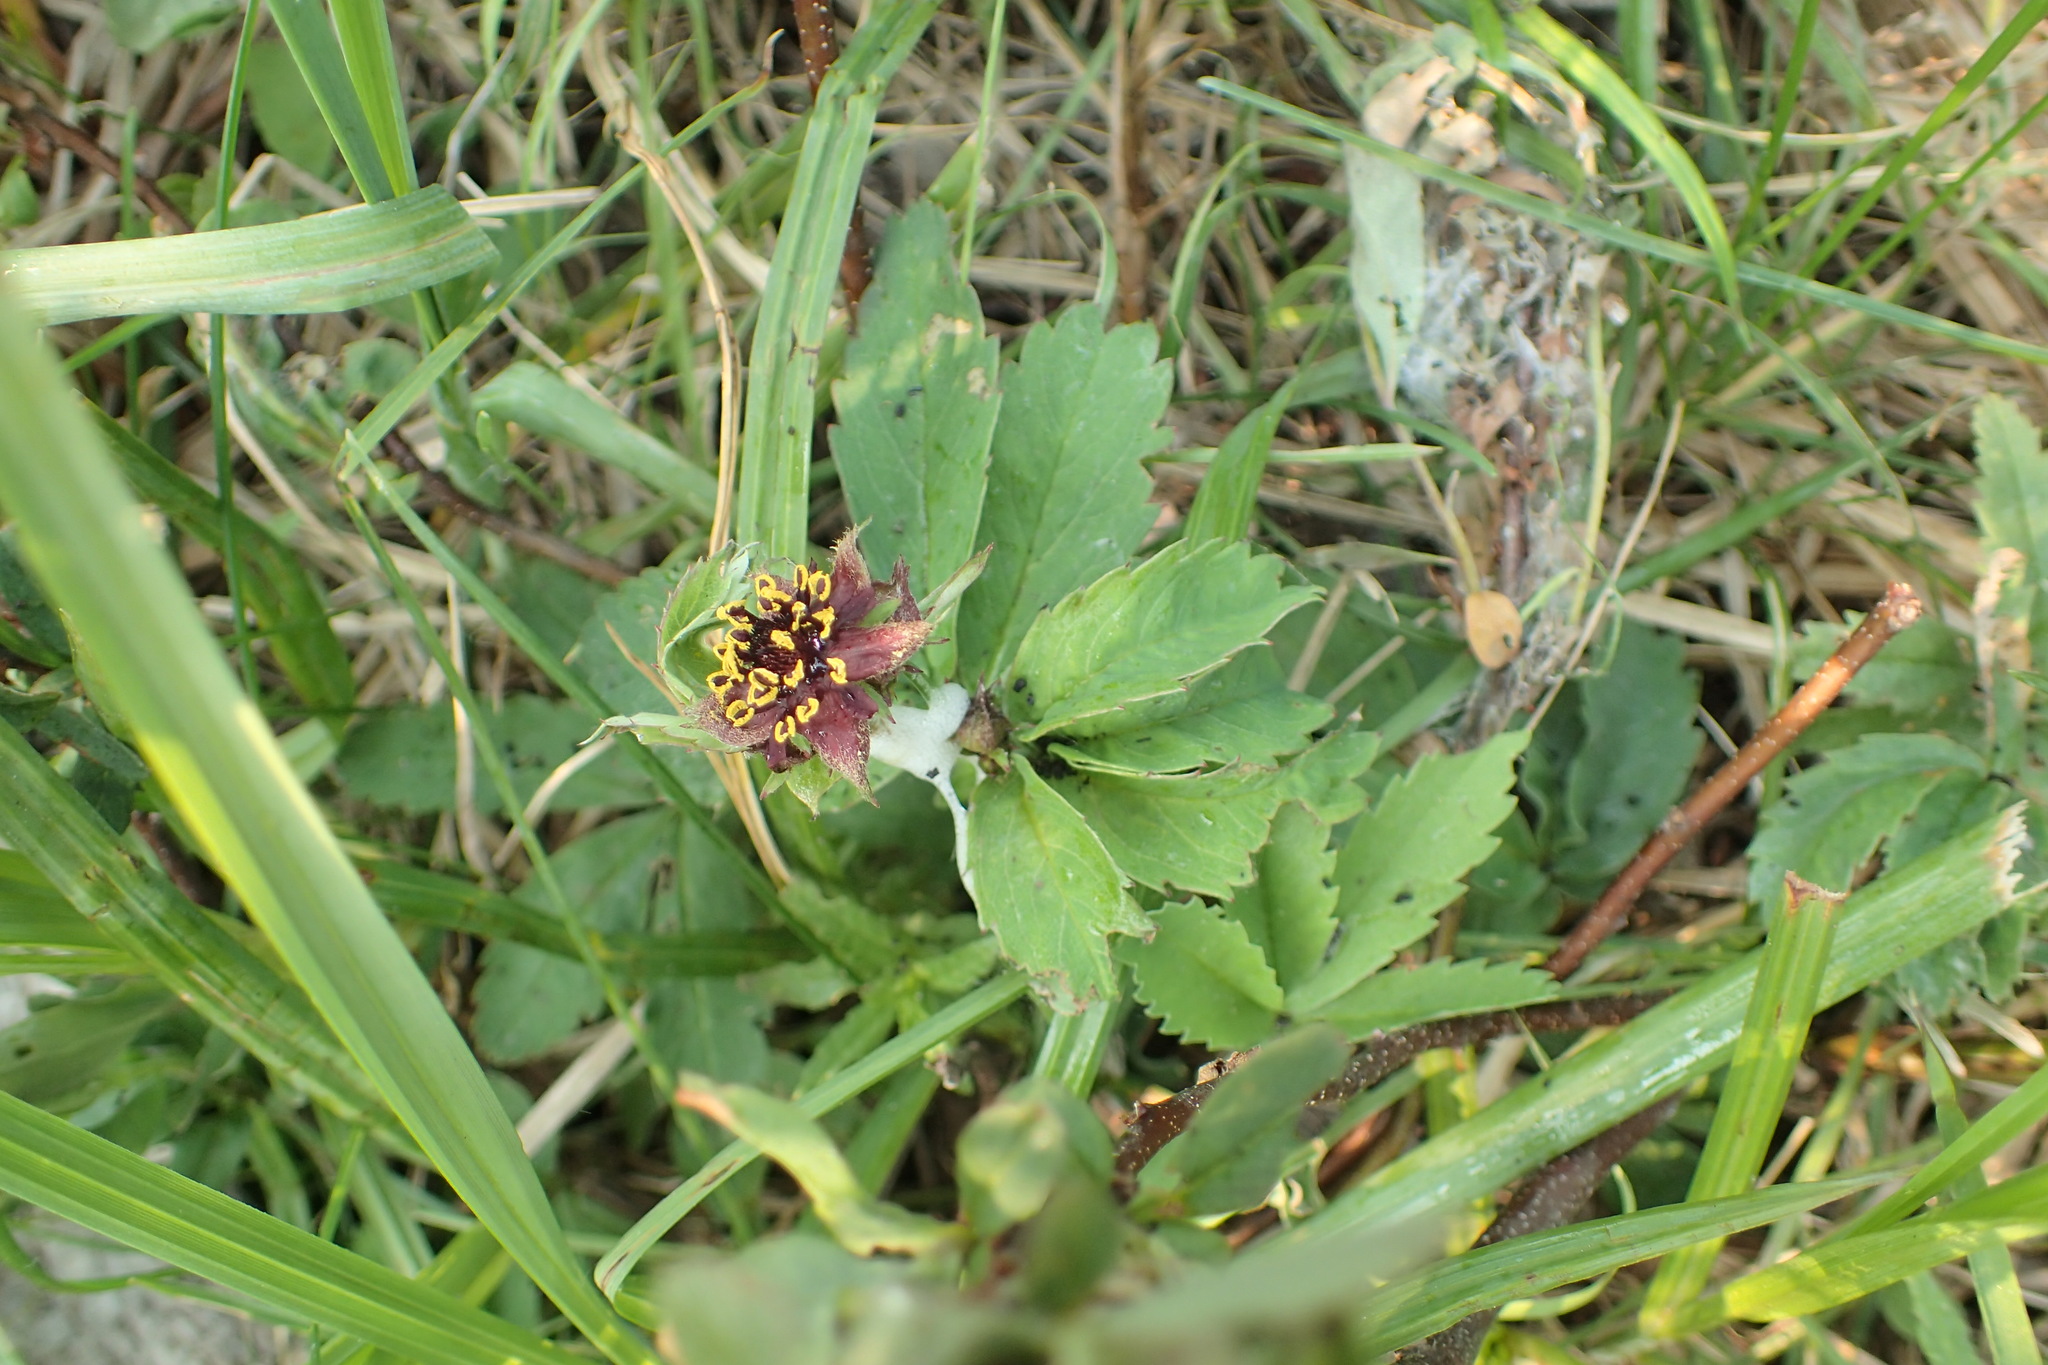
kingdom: Plantae
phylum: Tracheophyta
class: Magnoliopsida
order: Rosales
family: Rosaceae
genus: Comarum
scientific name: Comarum palustre
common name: Marsh cinquefoil
